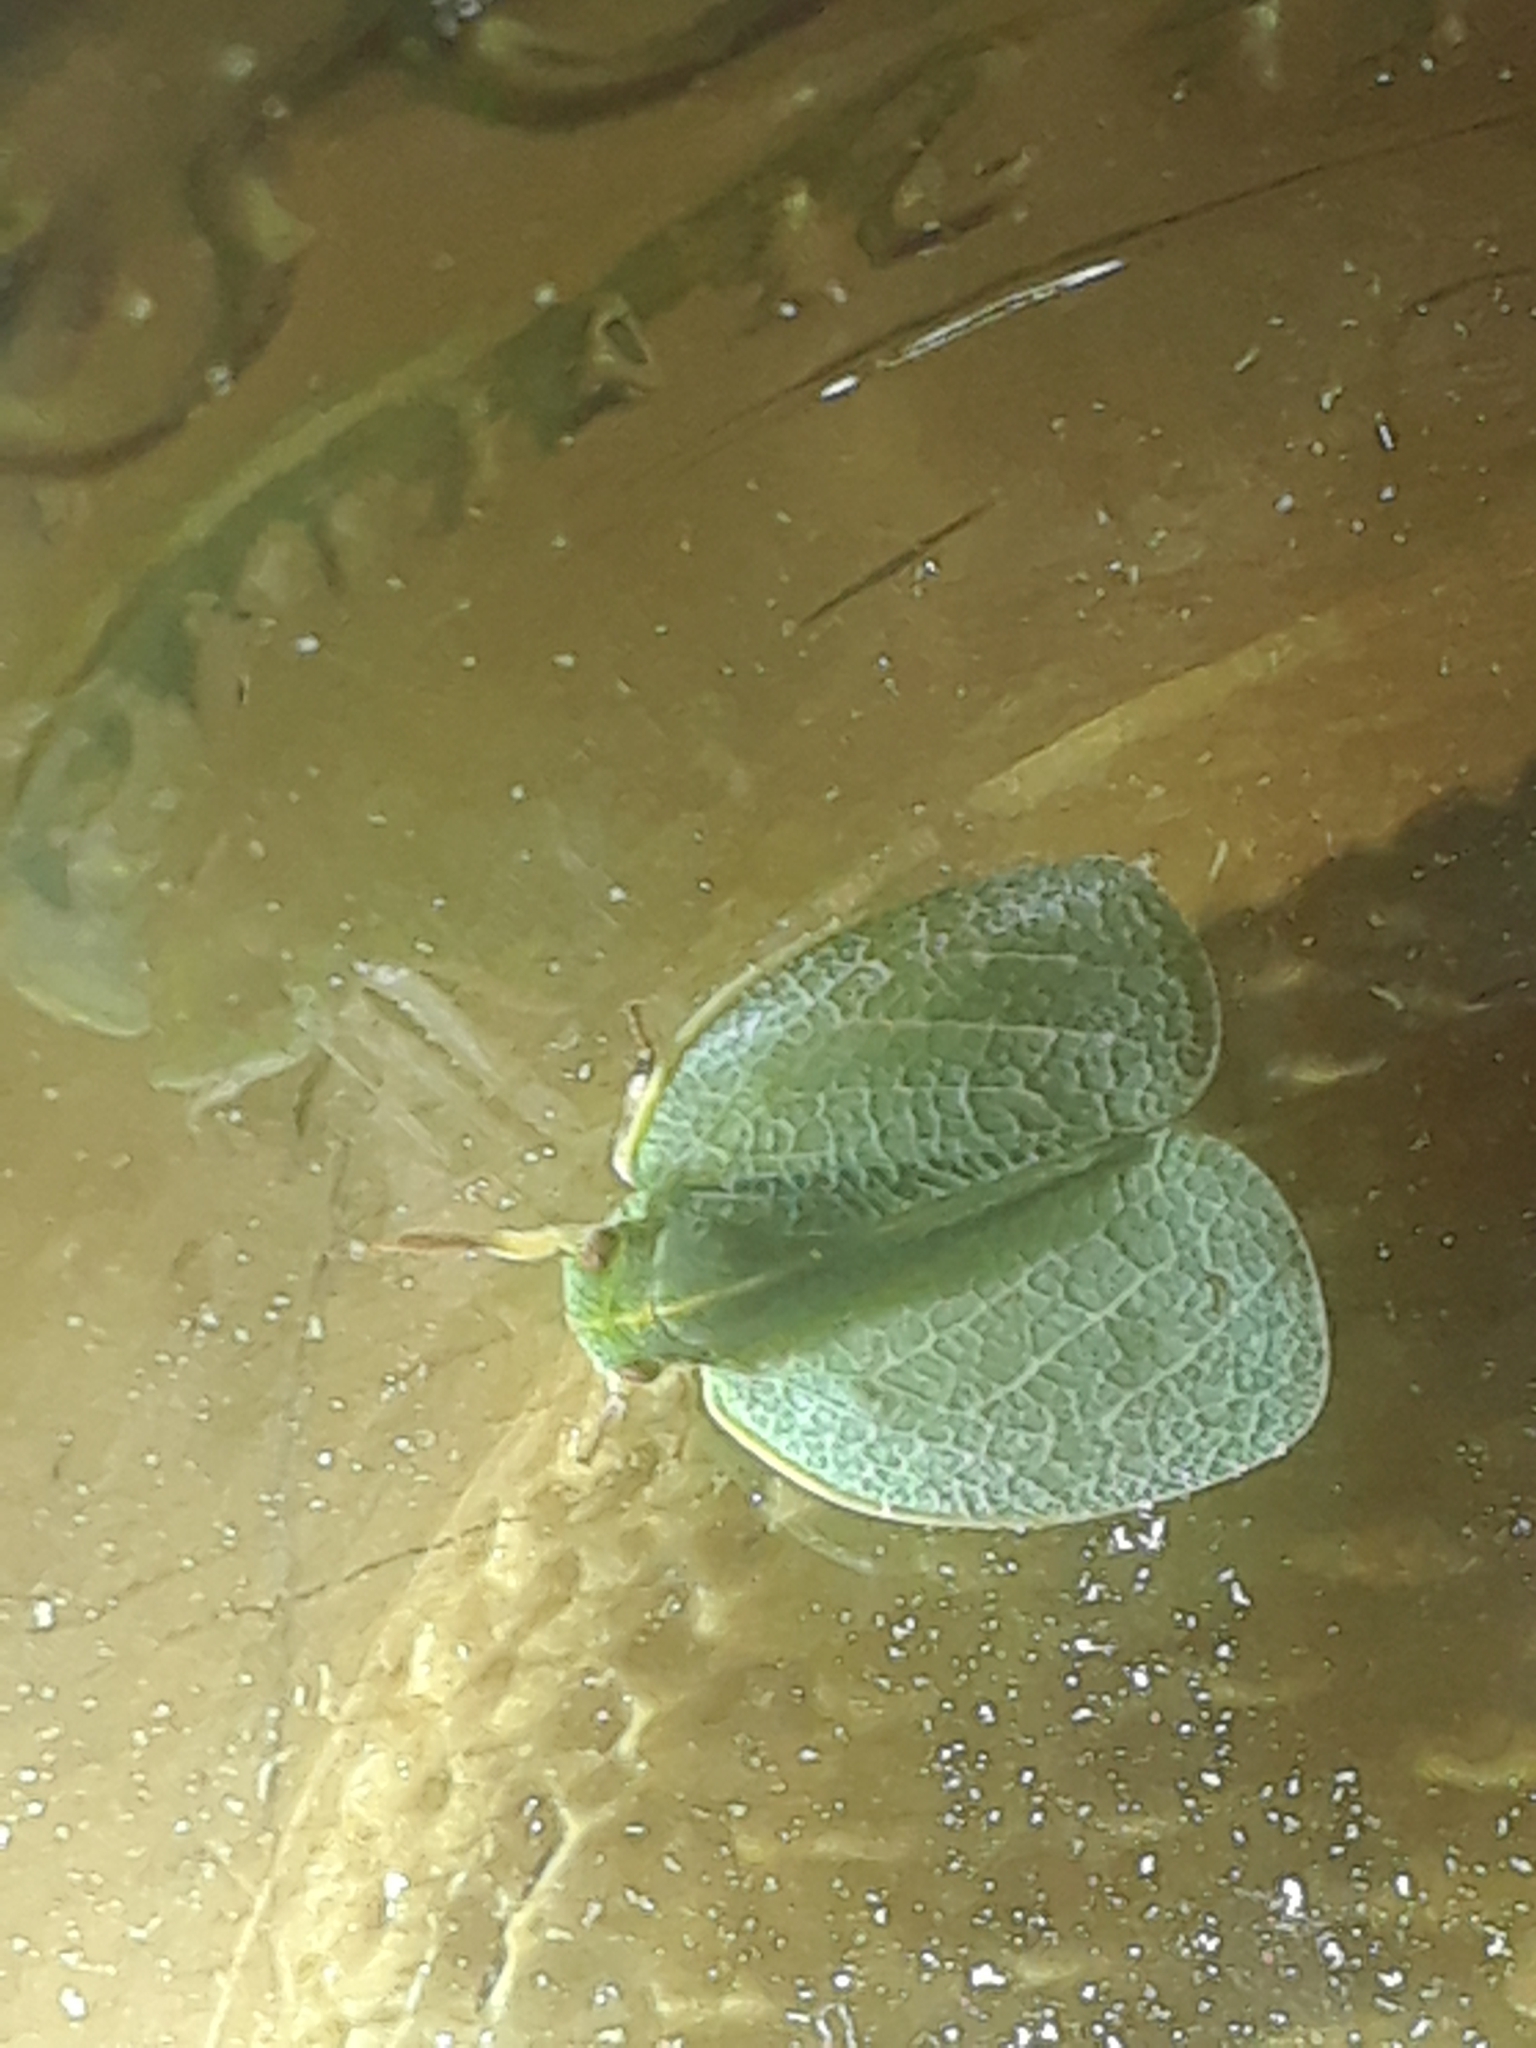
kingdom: Animalia
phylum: Arthropoda
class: Insecta
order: Hemiptera
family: Acanaloniidae
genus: Acanalonia
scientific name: Acanalonia servillei
